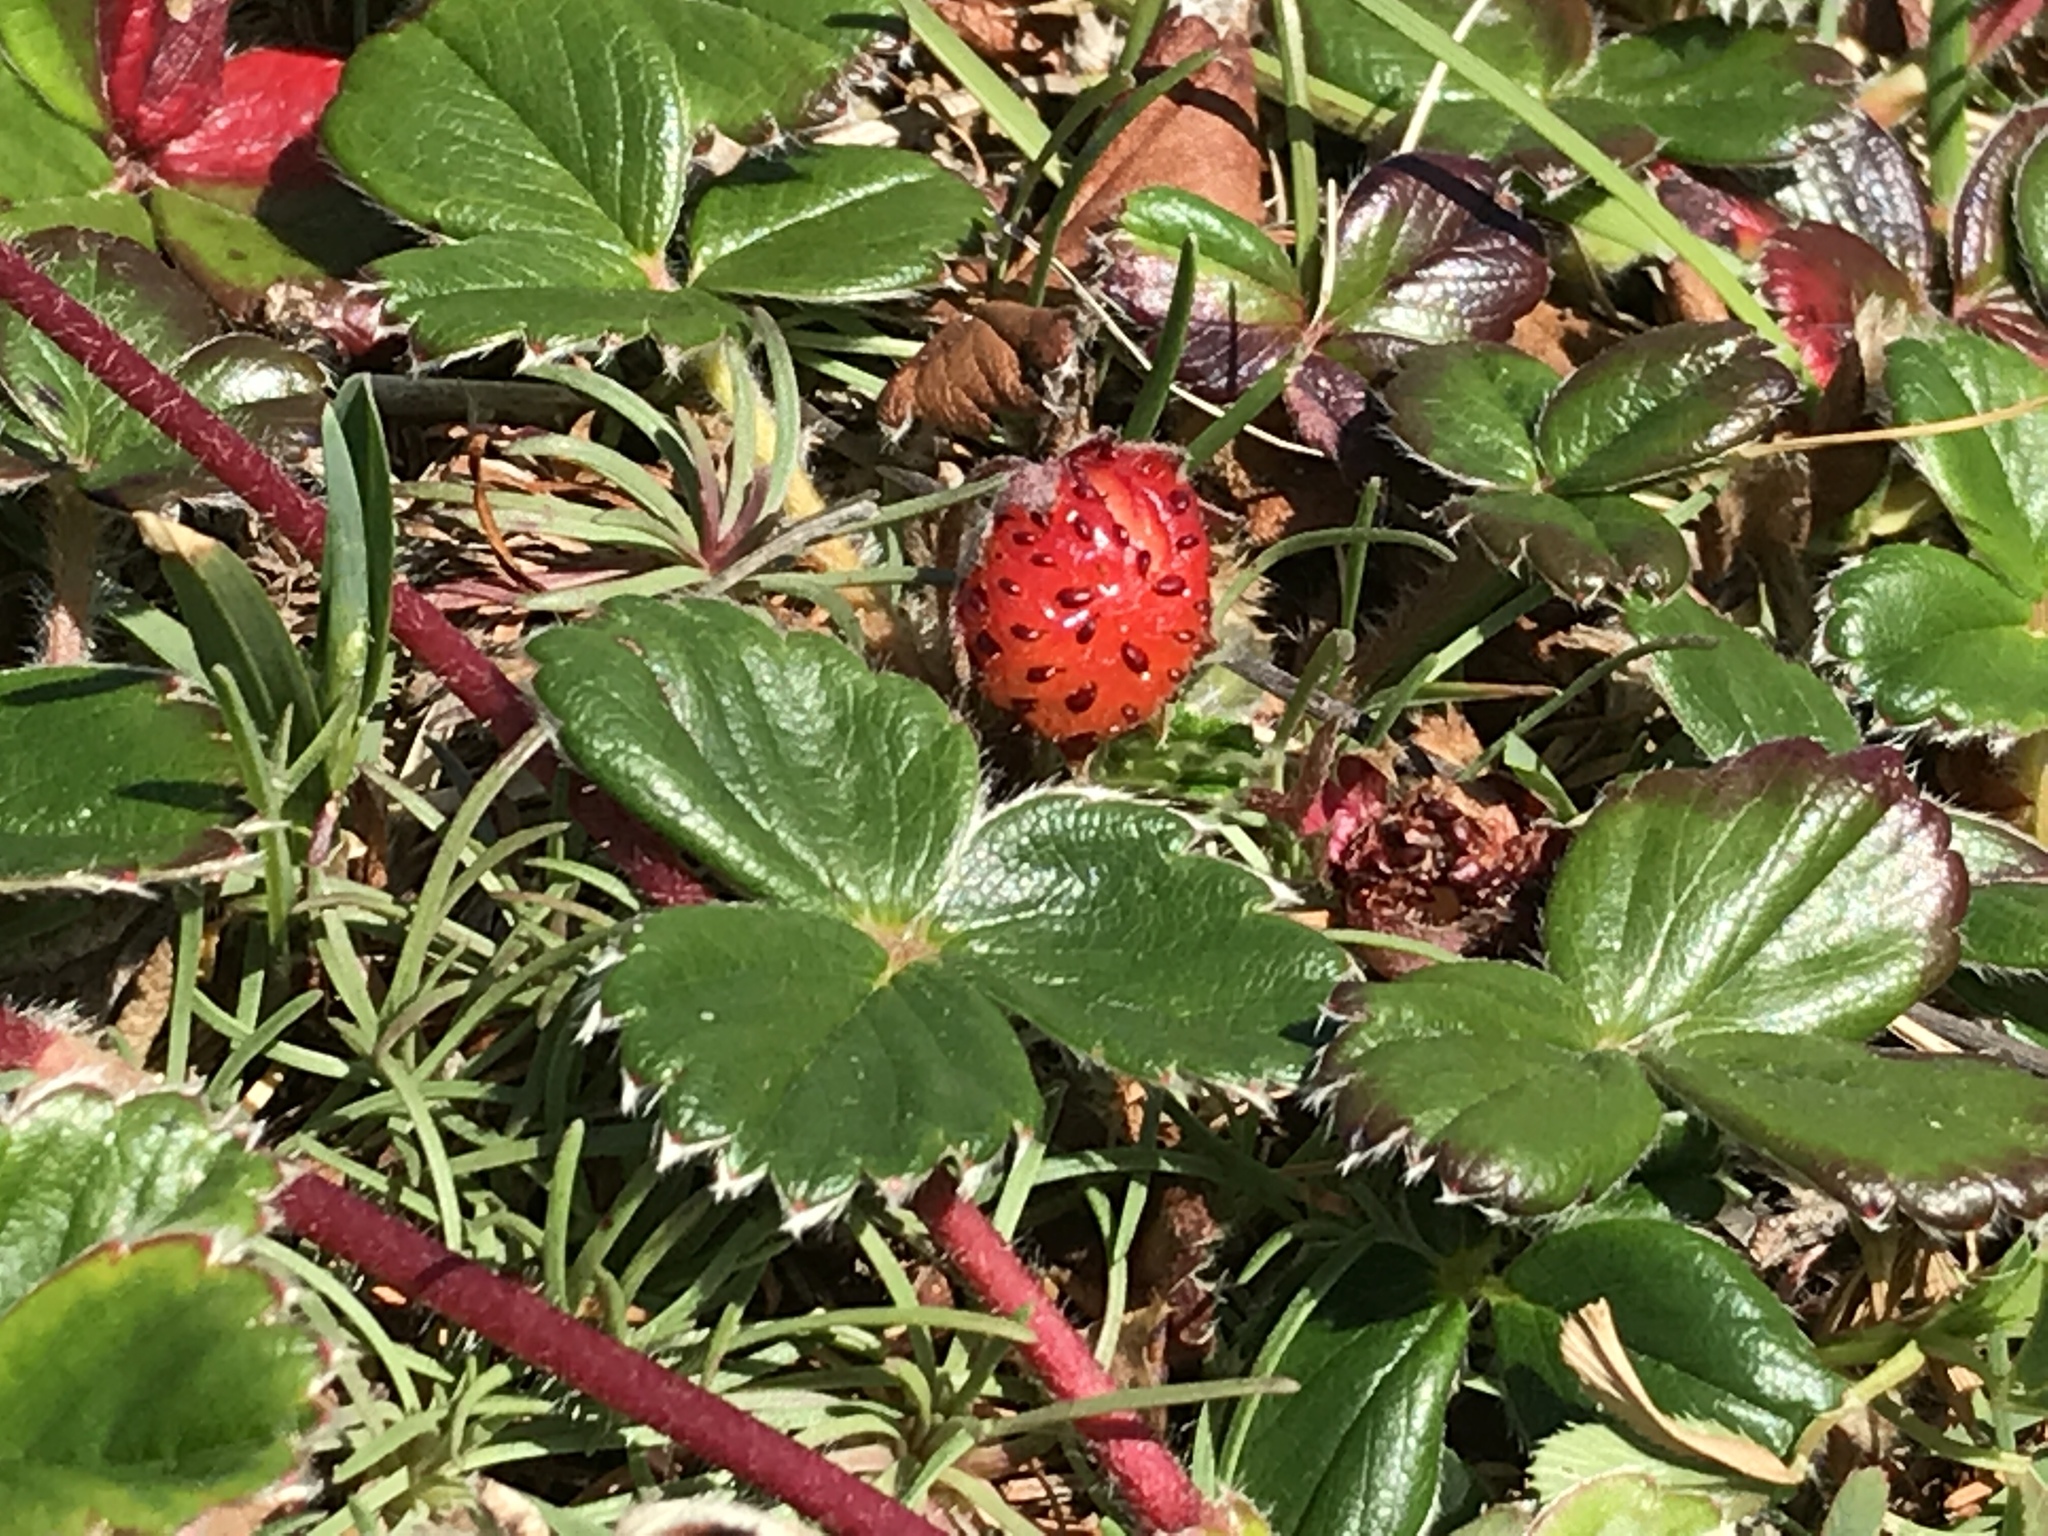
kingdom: Plantae
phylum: Tracheophyta
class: Magnoliopsida
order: Rosales
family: Rosaceae
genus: Fragaria
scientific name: Fragaria chiloensis
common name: Beach strawberry
